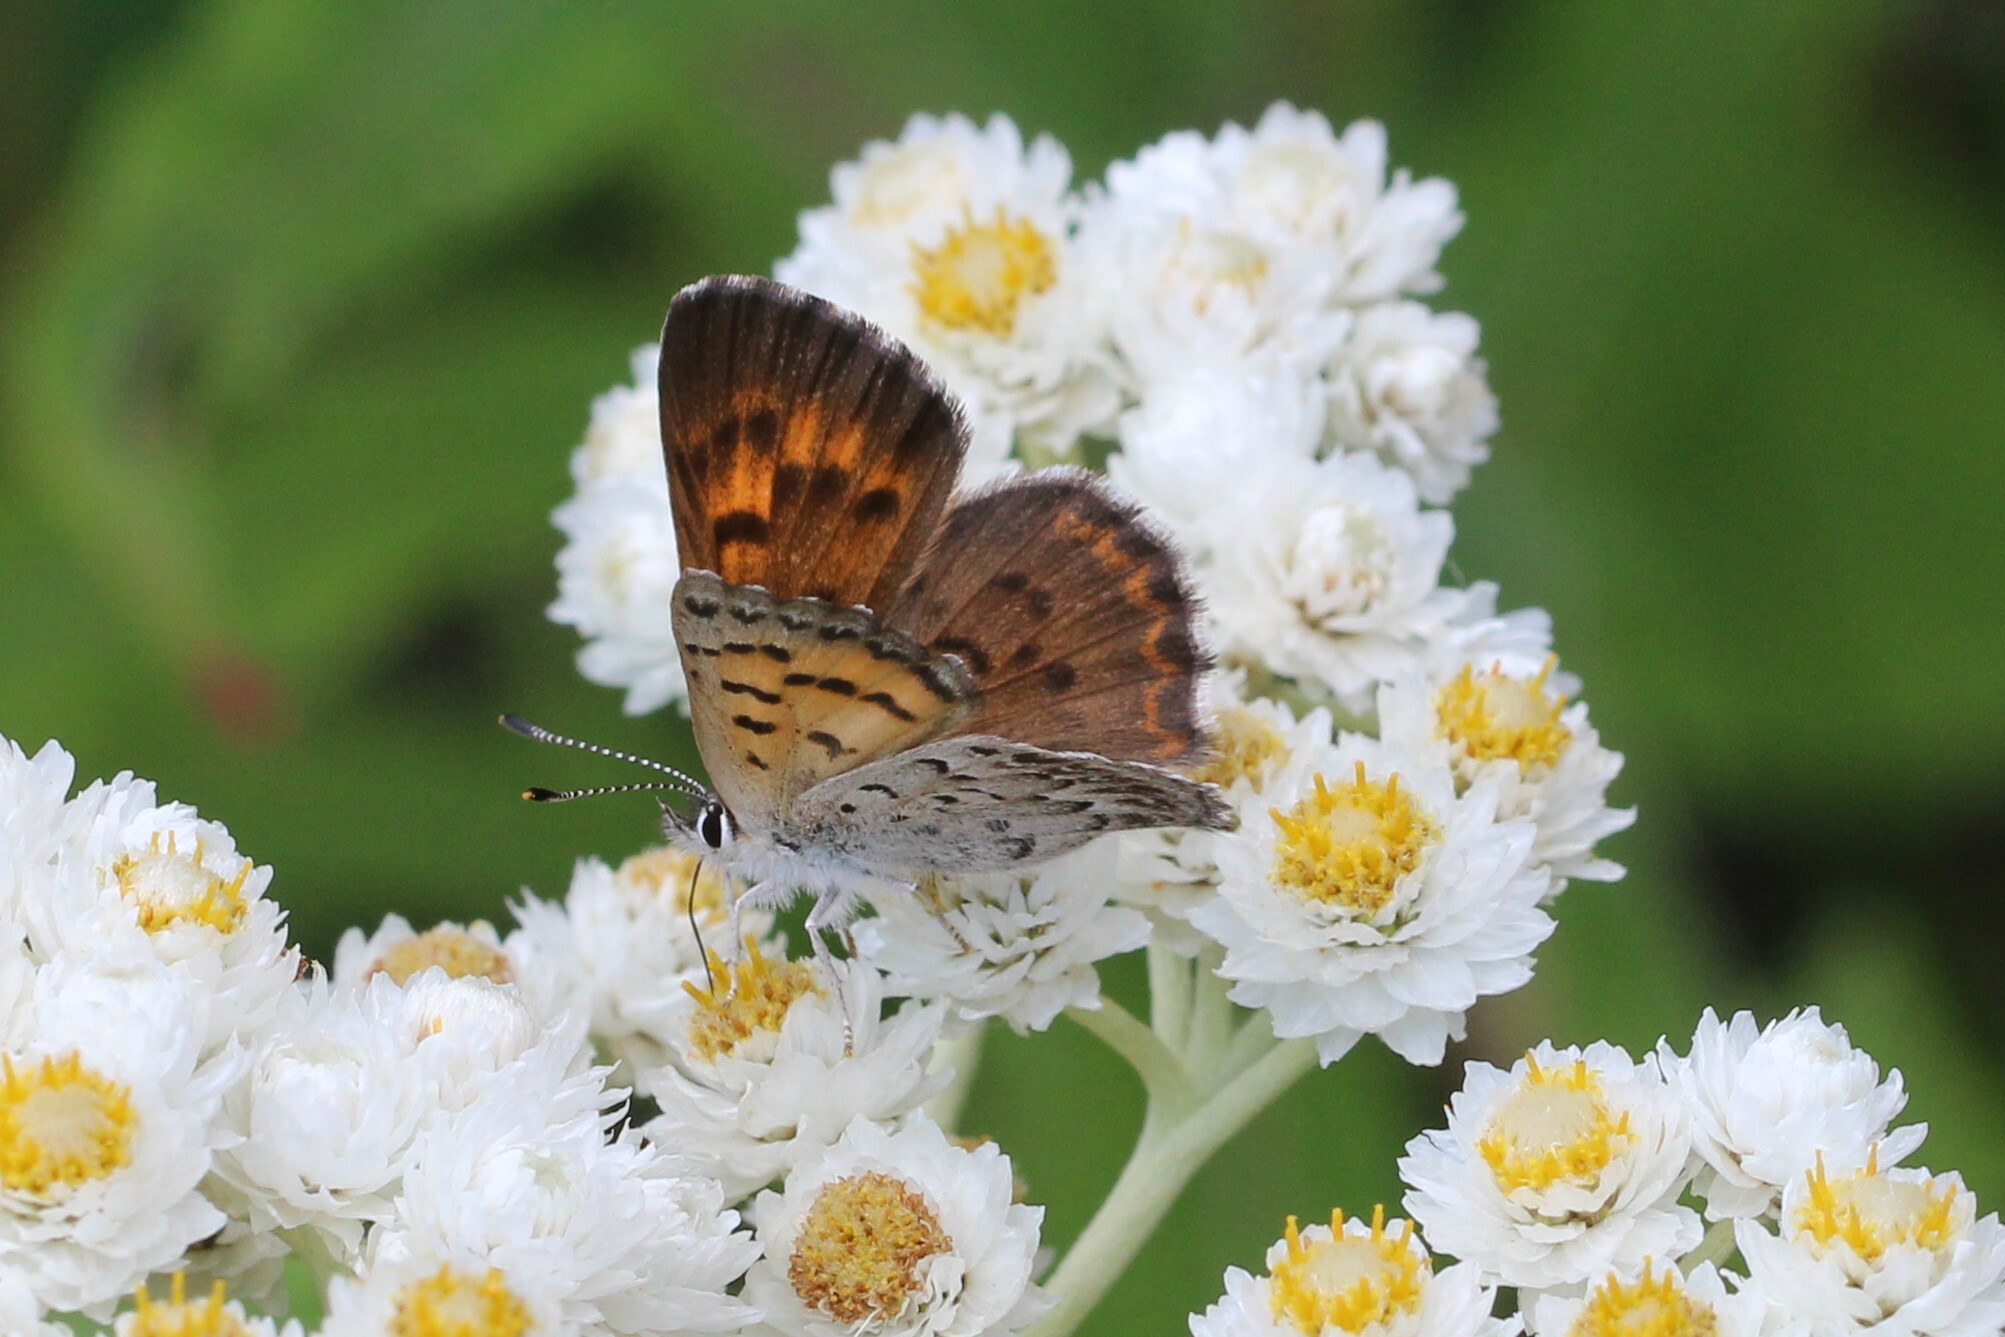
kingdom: Animalia
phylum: Arthropoda
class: Insecta
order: Lepidoptera
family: Lycaenidae
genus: Tharsalea
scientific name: Tharsalea mariposa
